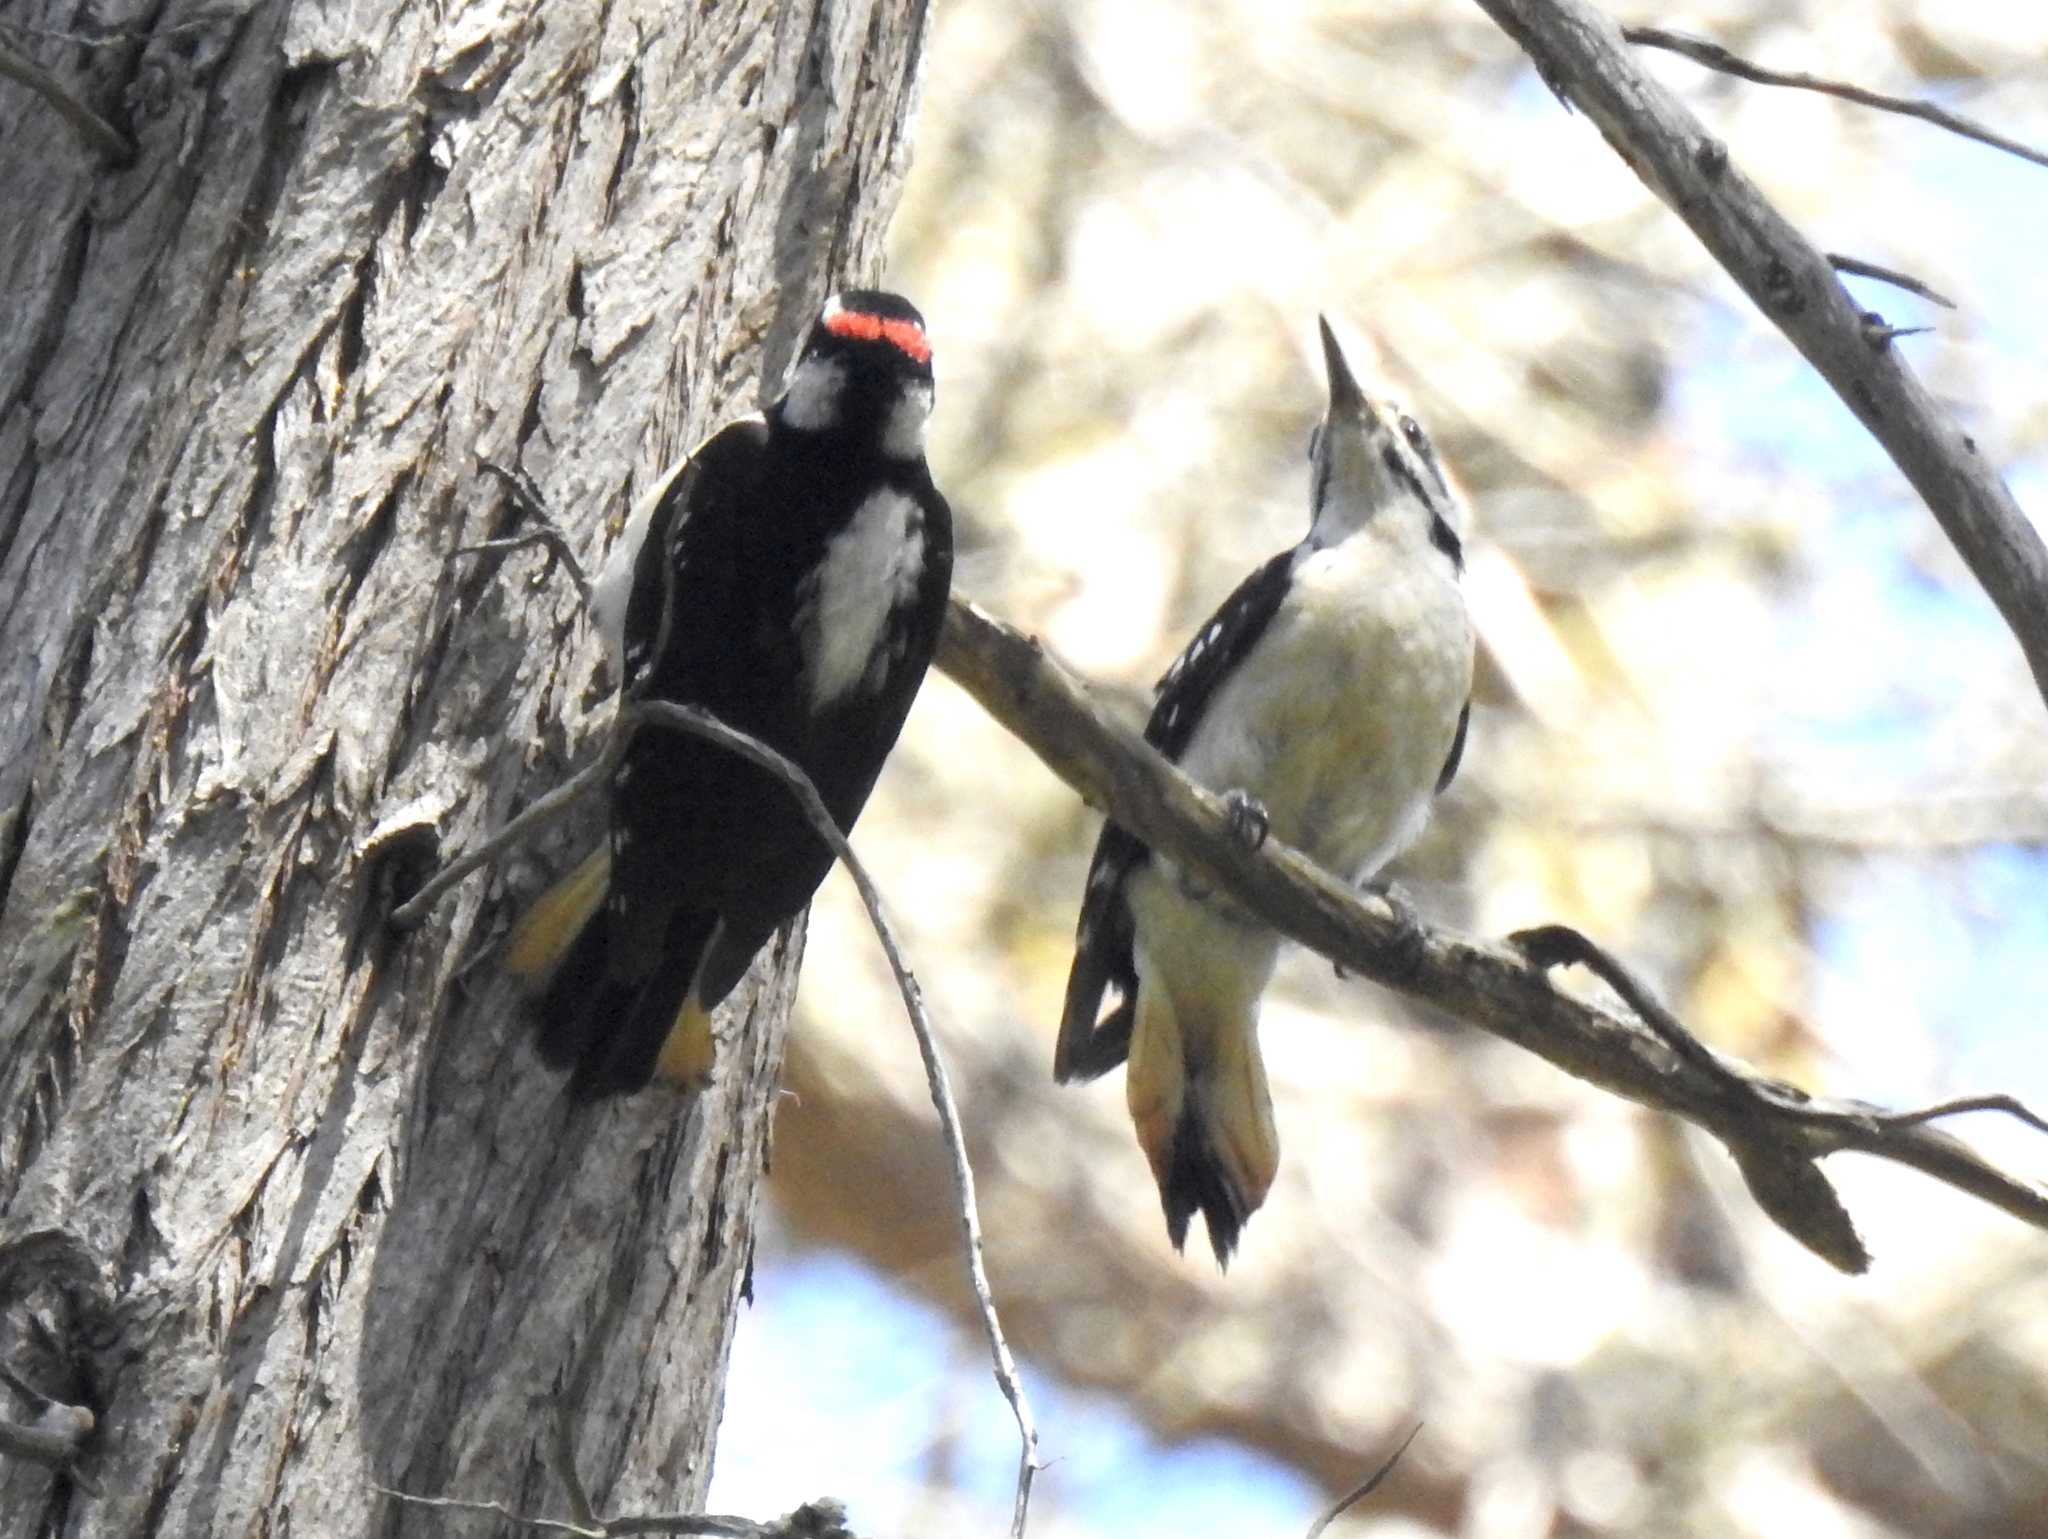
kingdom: Animalia
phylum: Chordata
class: Aves
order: Piciformes
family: Picidae
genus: Leuconotopicus
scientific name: Leuconotopicus villosus
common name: Hairy woodpecker
